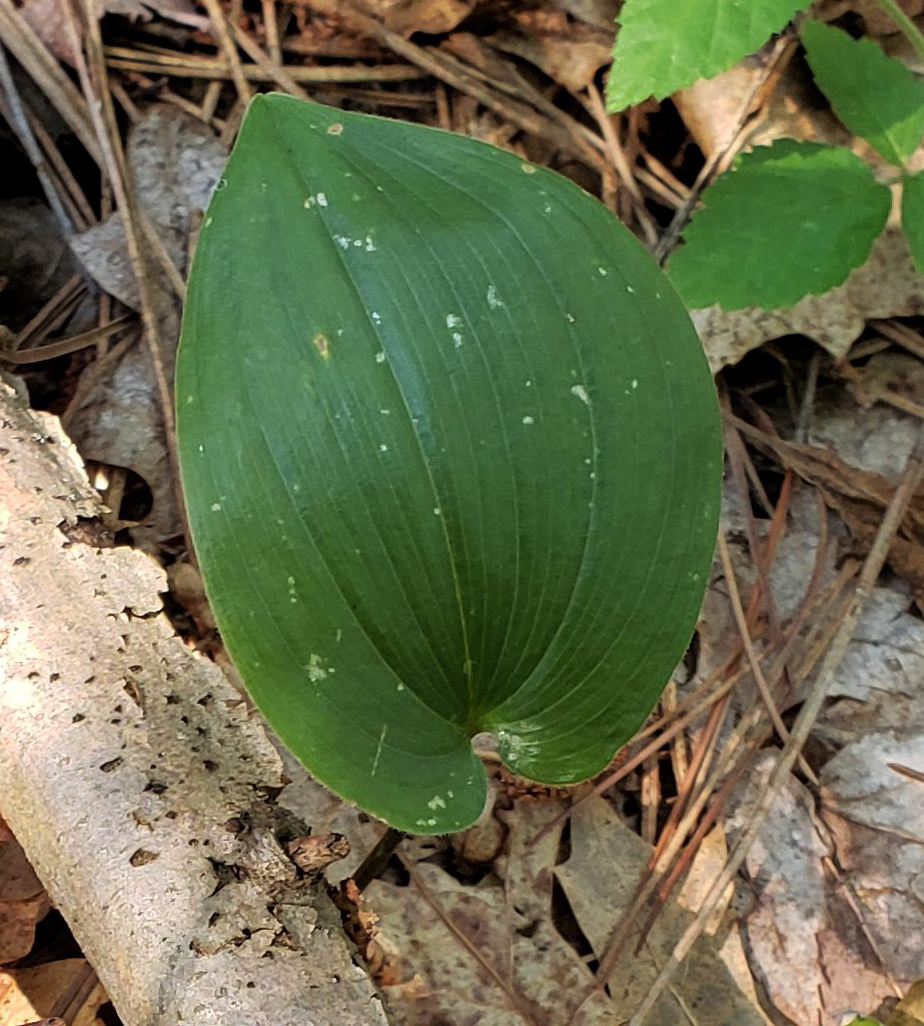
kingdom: Plantae
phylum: Tracheophyta
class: Liliopsida
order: Asparagales
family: Asparagaceae
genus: Maianthemum
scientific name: Maianthemum canadense
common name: False lily-of-the-valley
